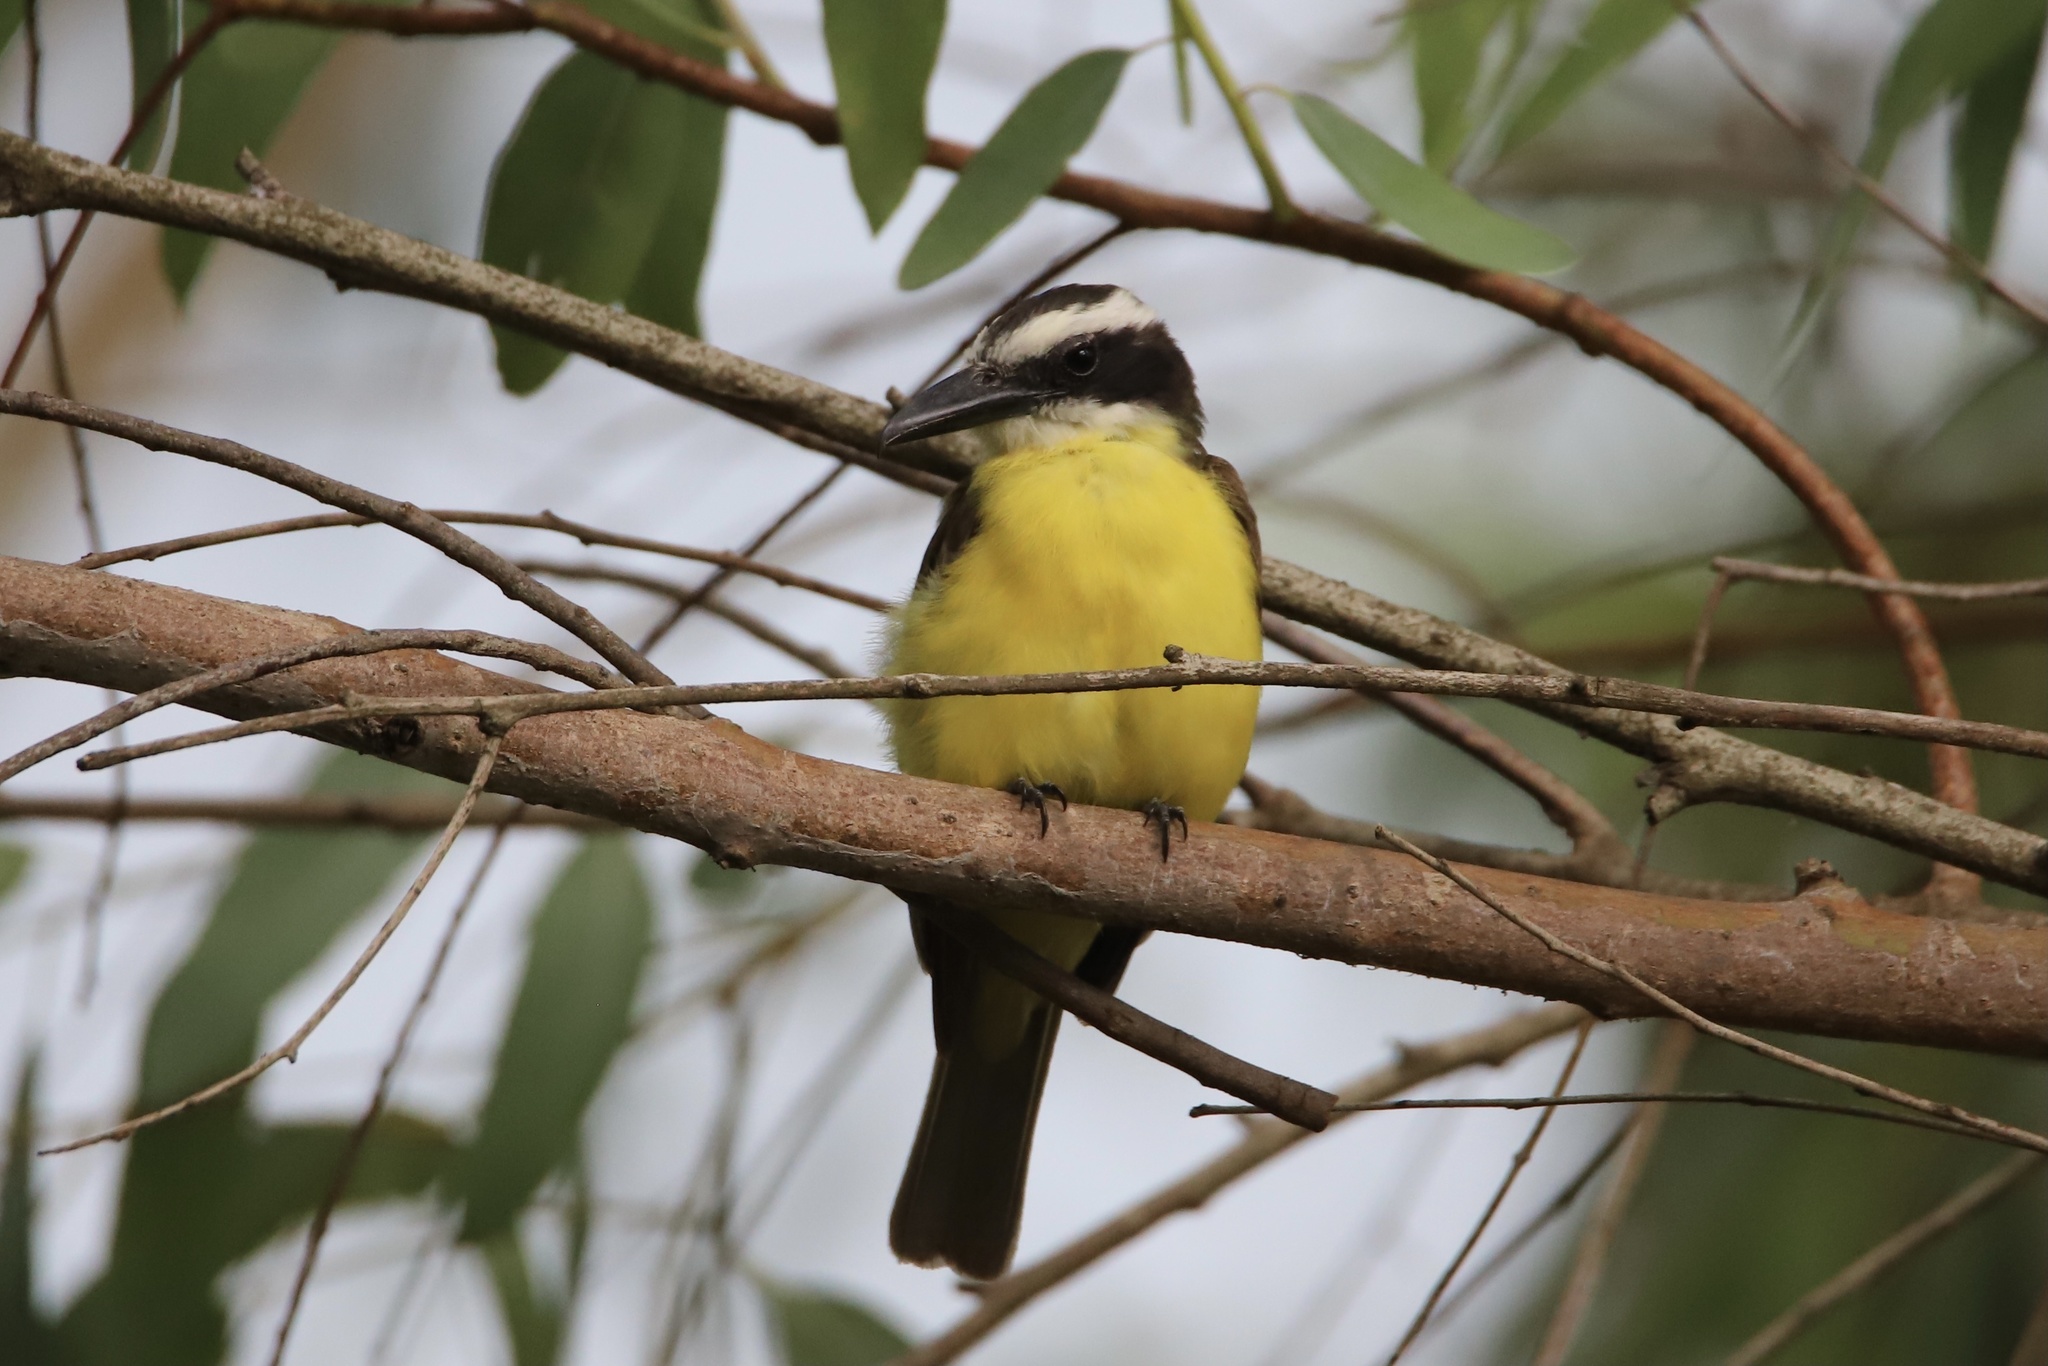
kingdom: Animalia
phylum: Chordata
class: Aves
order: Passeriformes
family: Tyrannidae
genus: Megarynchus
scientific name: Megarynchus pitangua
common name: Boat-billed flycatcher
